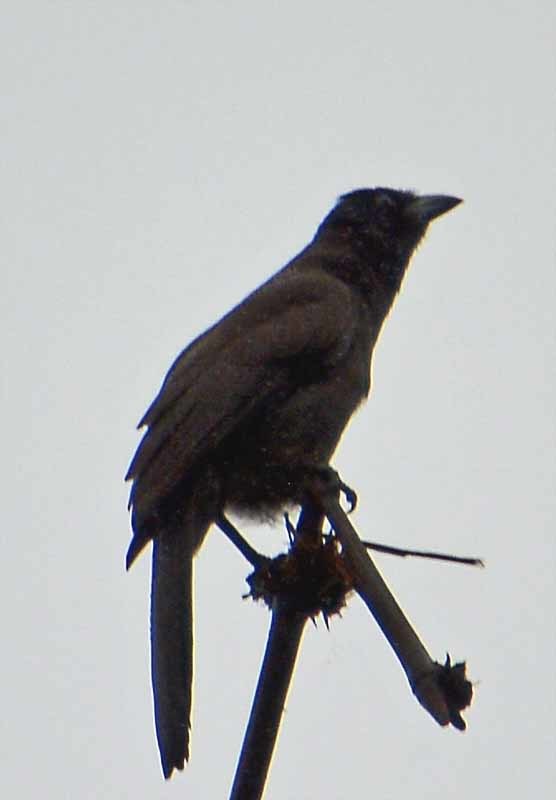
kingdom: Animalia
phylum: Chordata
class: Aves
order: Passeriformes
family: Corvidae
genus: Psilorhinus
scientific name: Psilorhinus morio
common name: Brown jay
